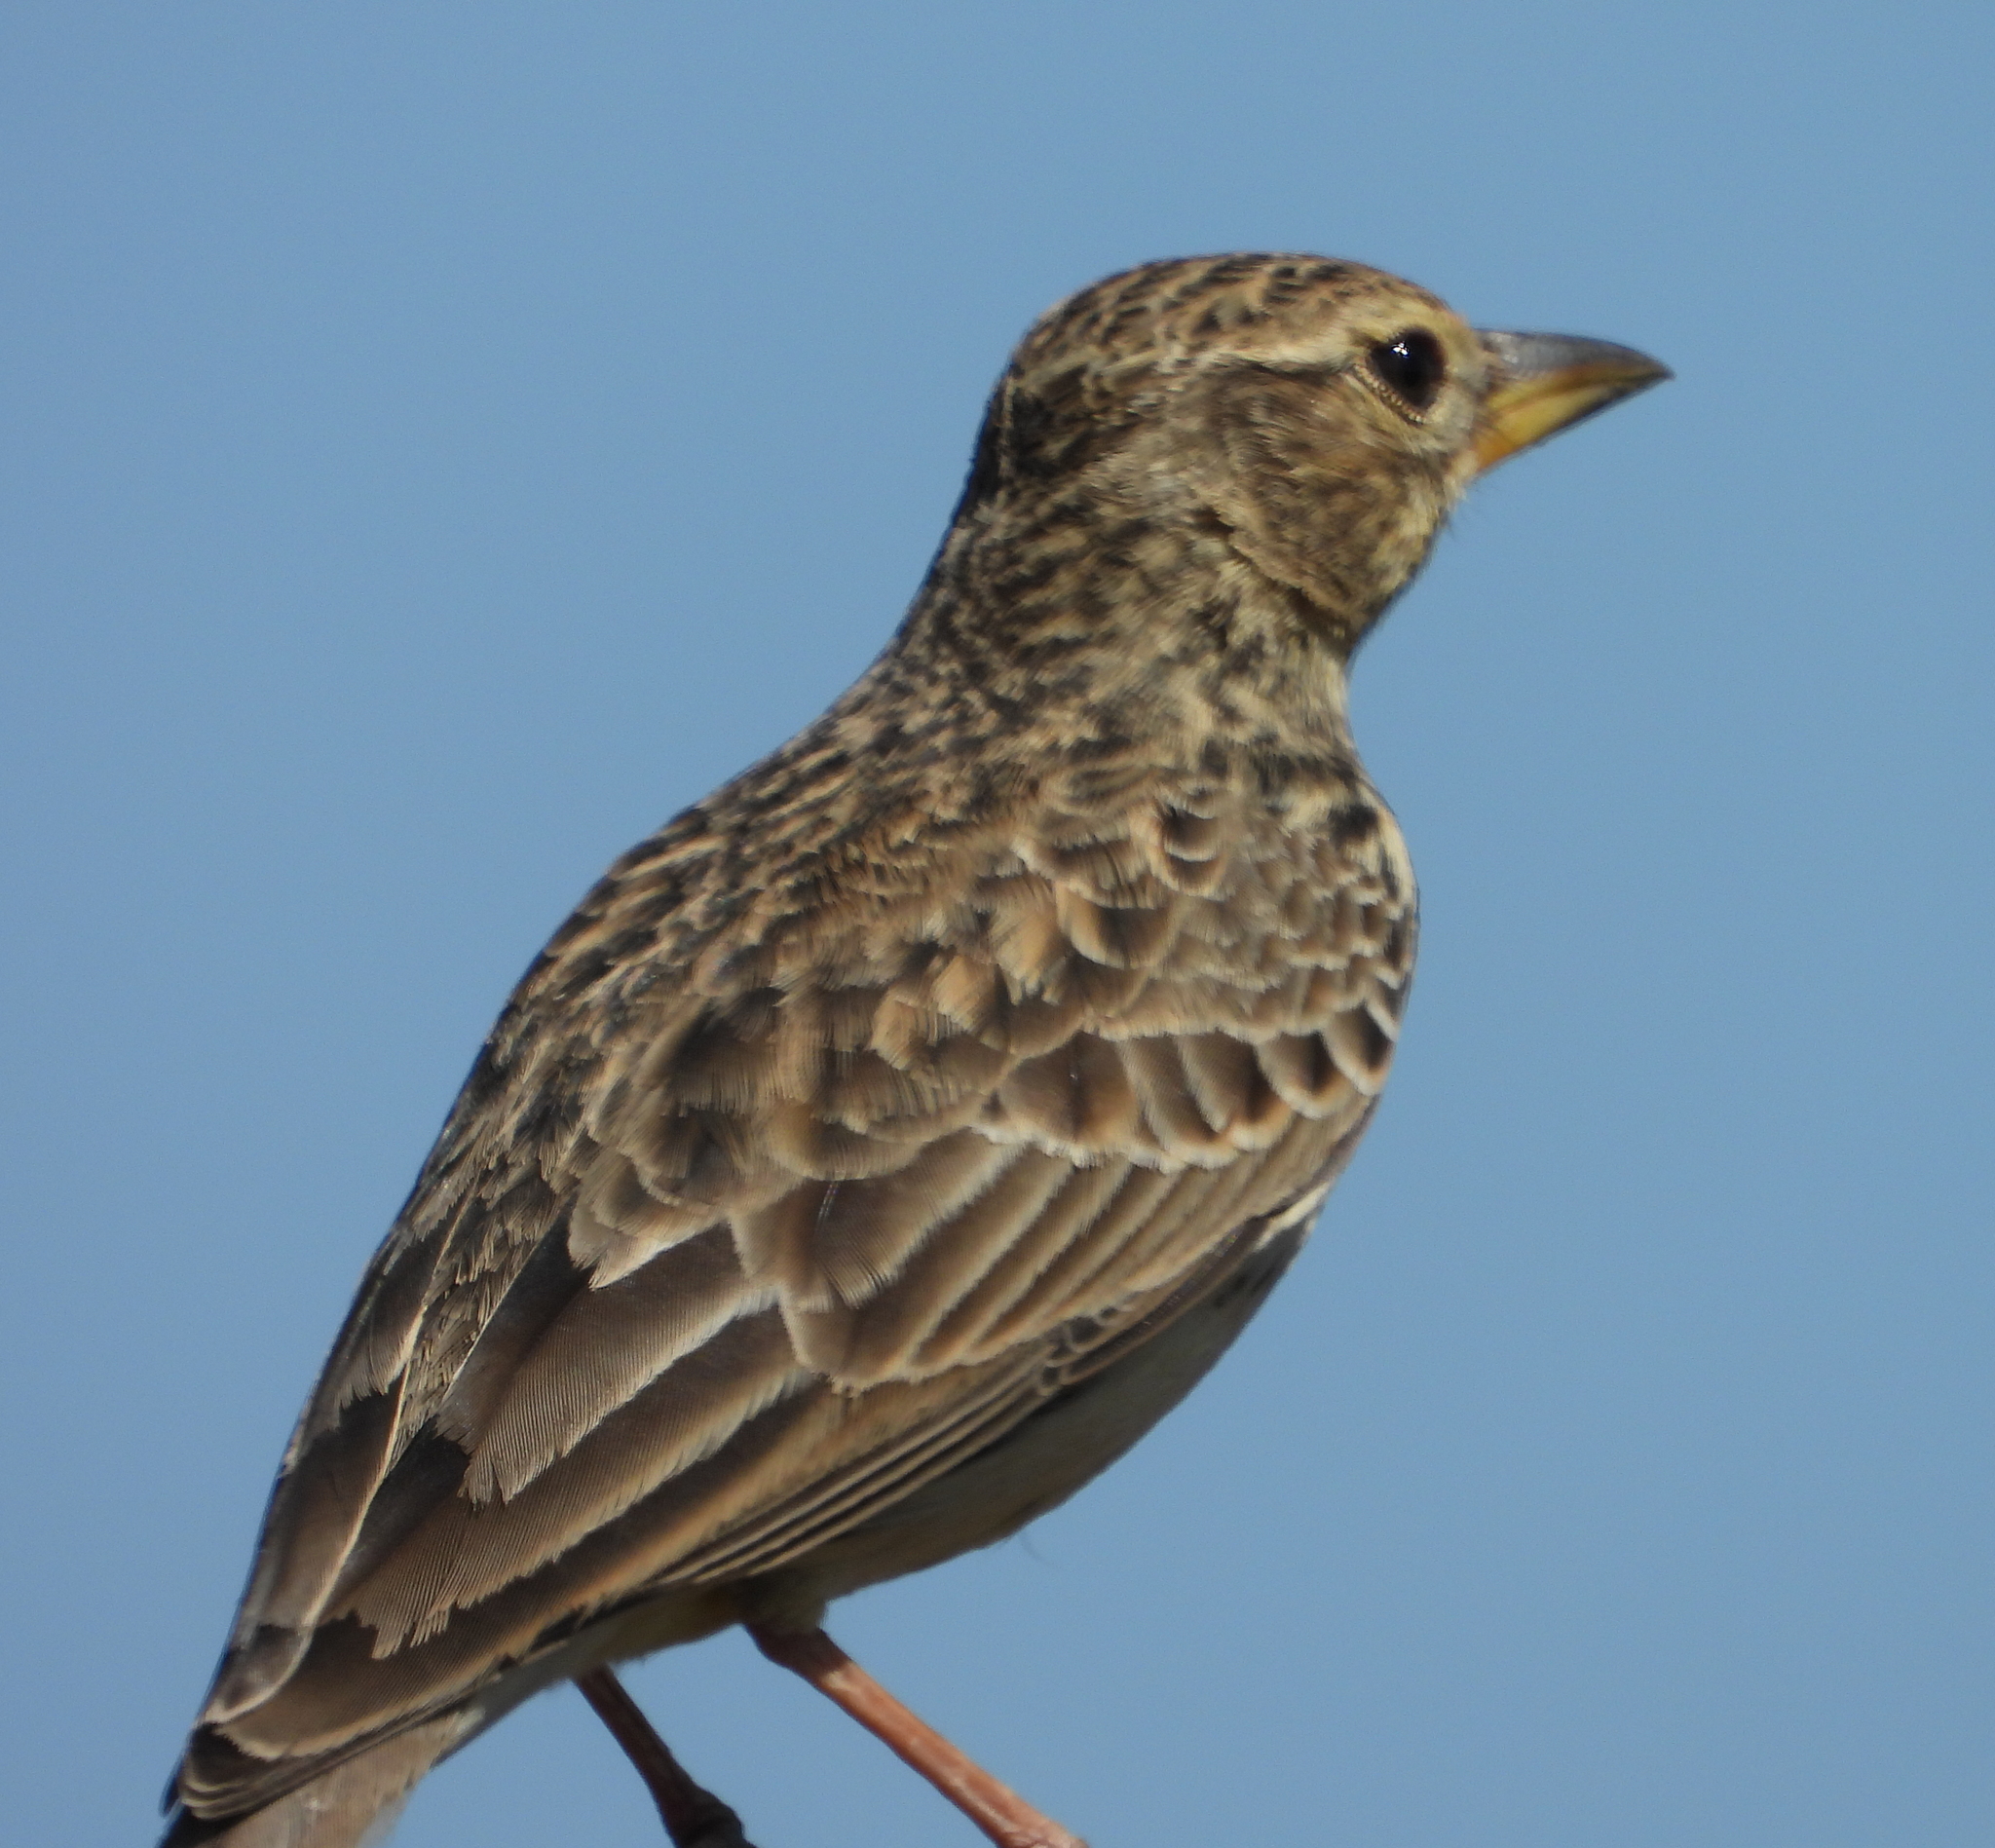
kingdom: Animalia
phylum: Chordata
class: Aves
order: Passeriformes
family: Alaudidae
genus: Galerida
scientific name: Galerida magnirostris
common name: Large-billed lark
